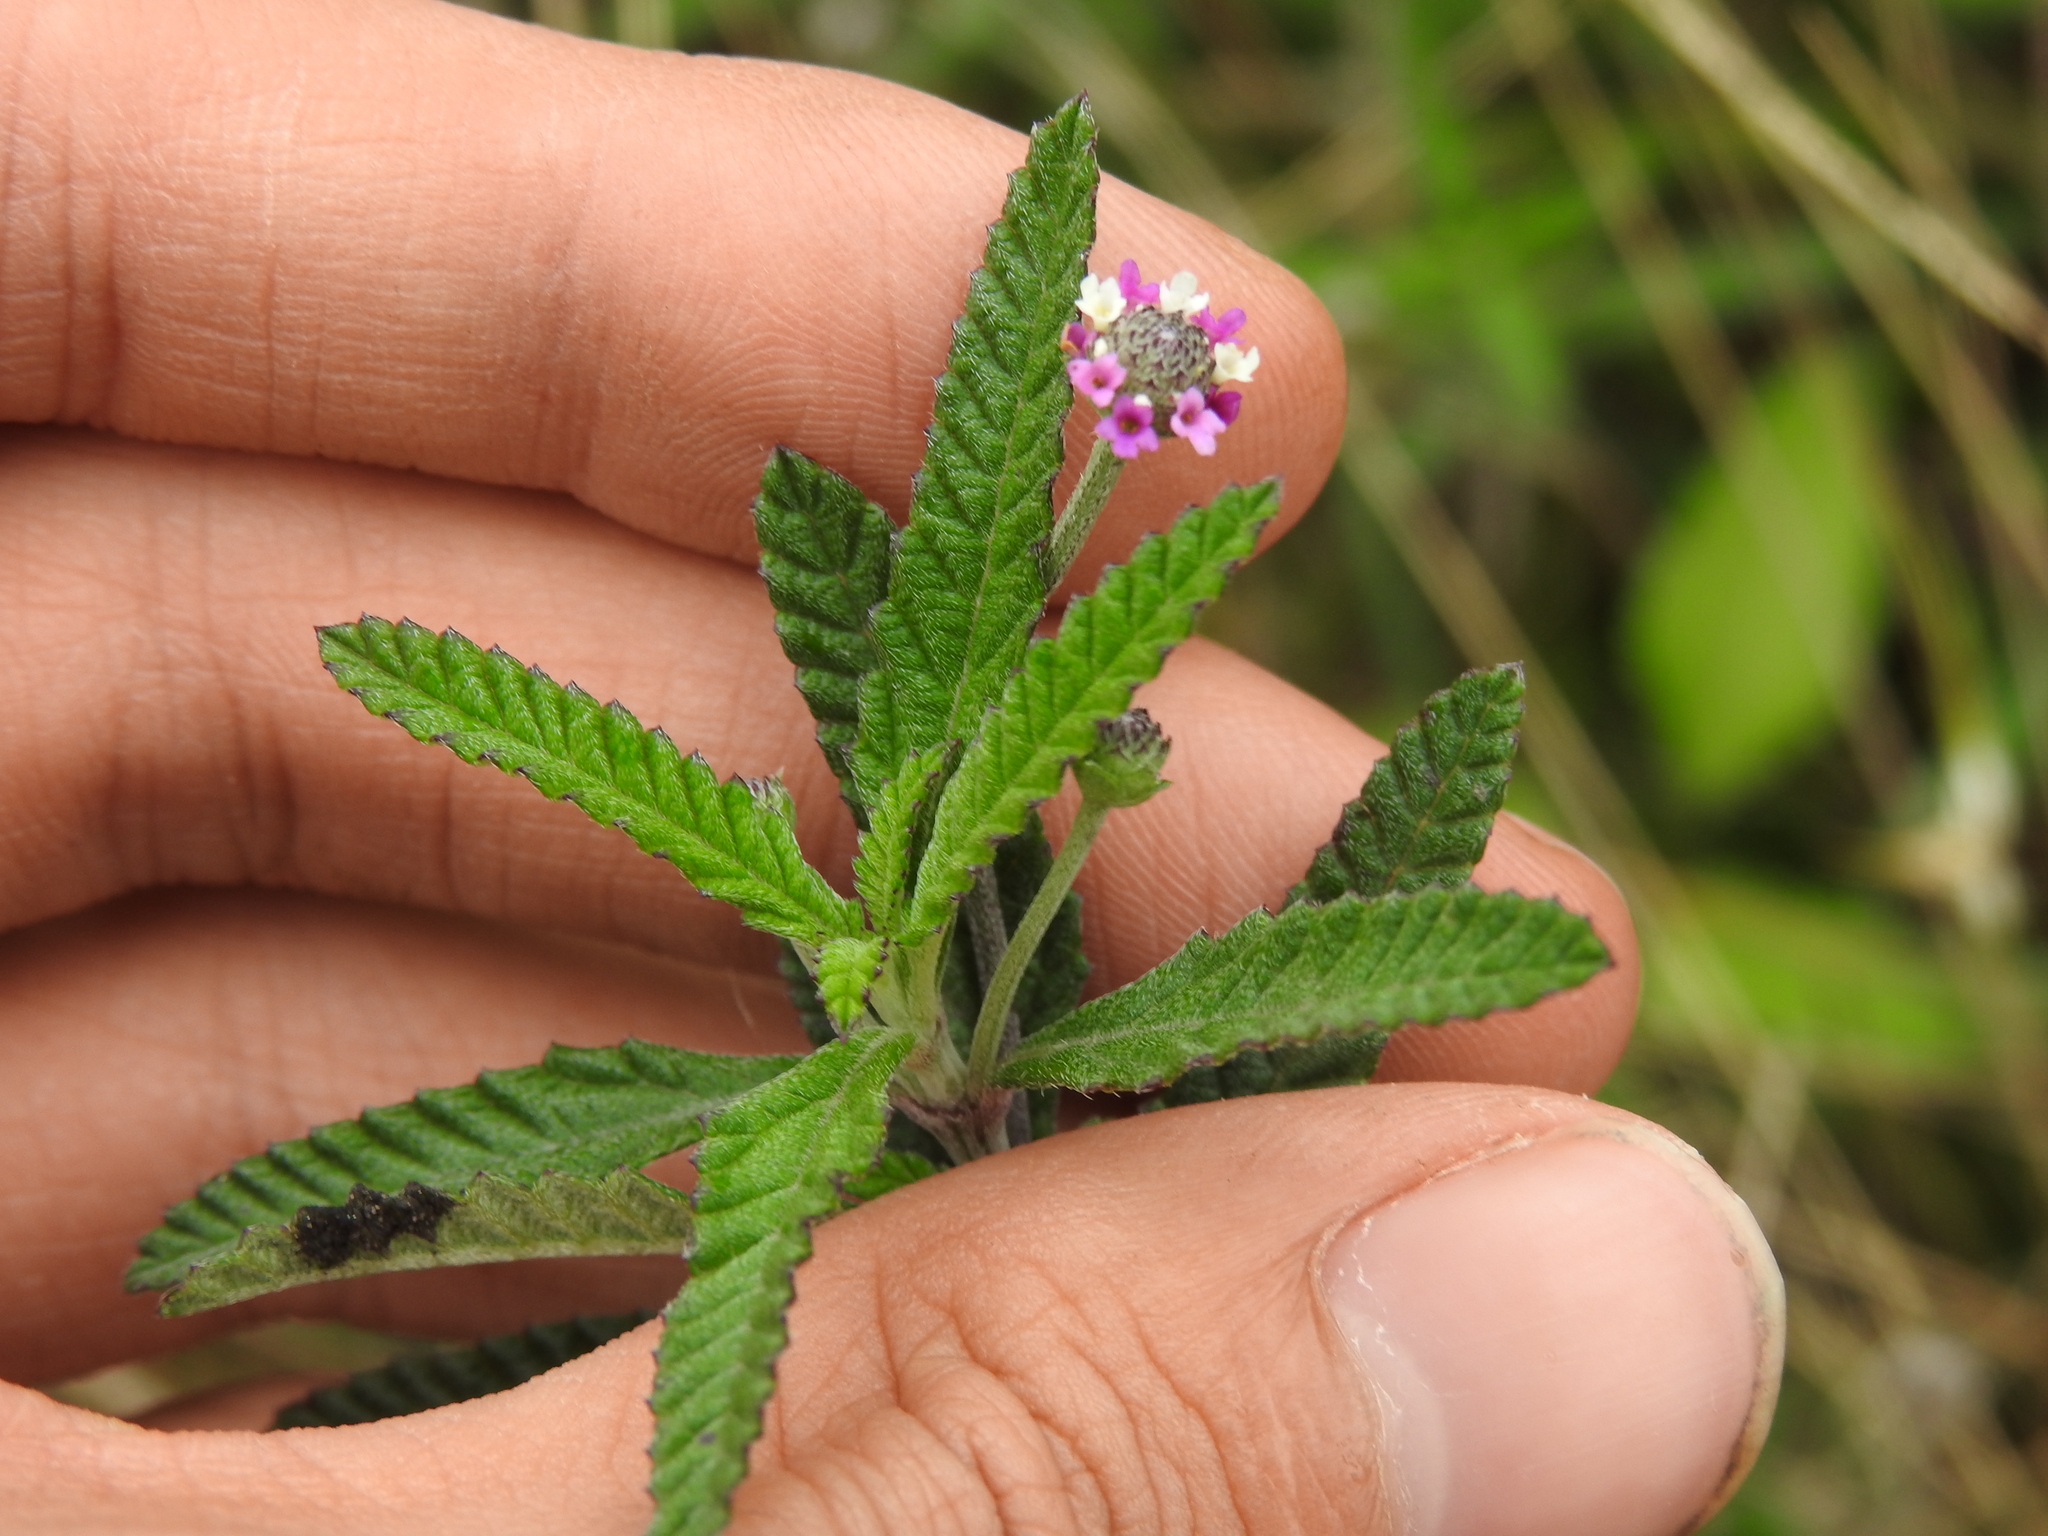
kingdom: Plantae
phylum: Tracheophyta
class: Magnoliopsida
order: Lamiales
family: Verbenaceae
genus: Lippia
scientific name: Lippia stoechadifolia
